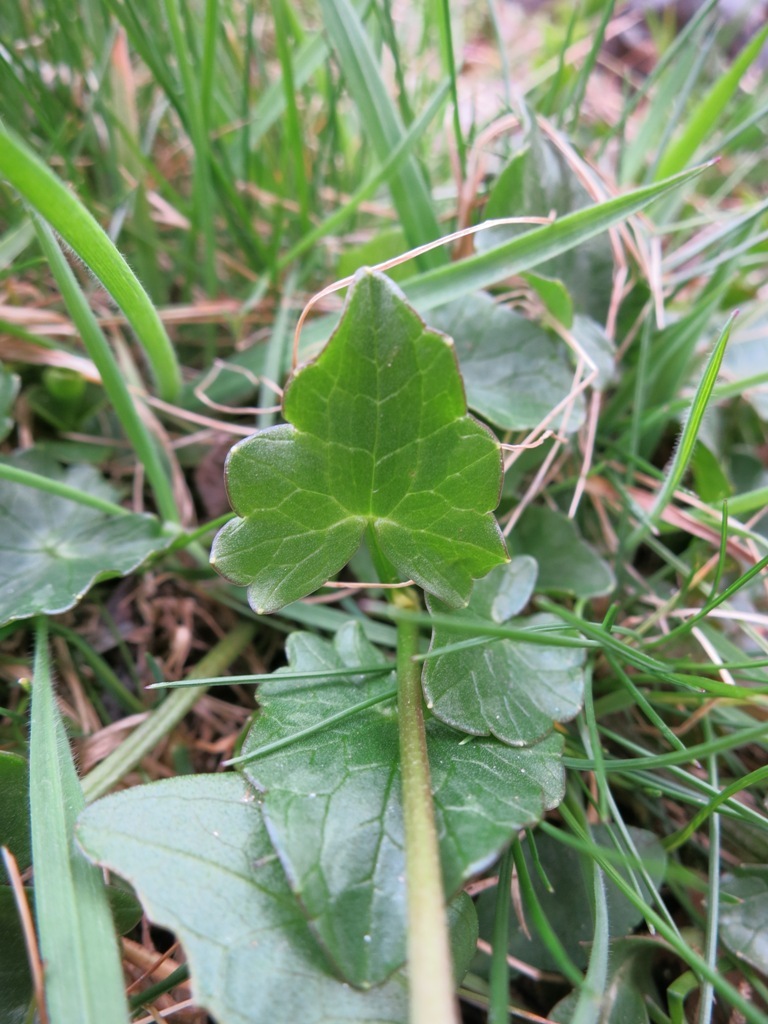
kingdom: Plantae
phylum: Tracheophyta
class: Magnoliopsida
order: Ranunculales
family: Ranunculaceae
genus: Ficaria
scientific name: Ficaria verna
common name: Lesser celandine
